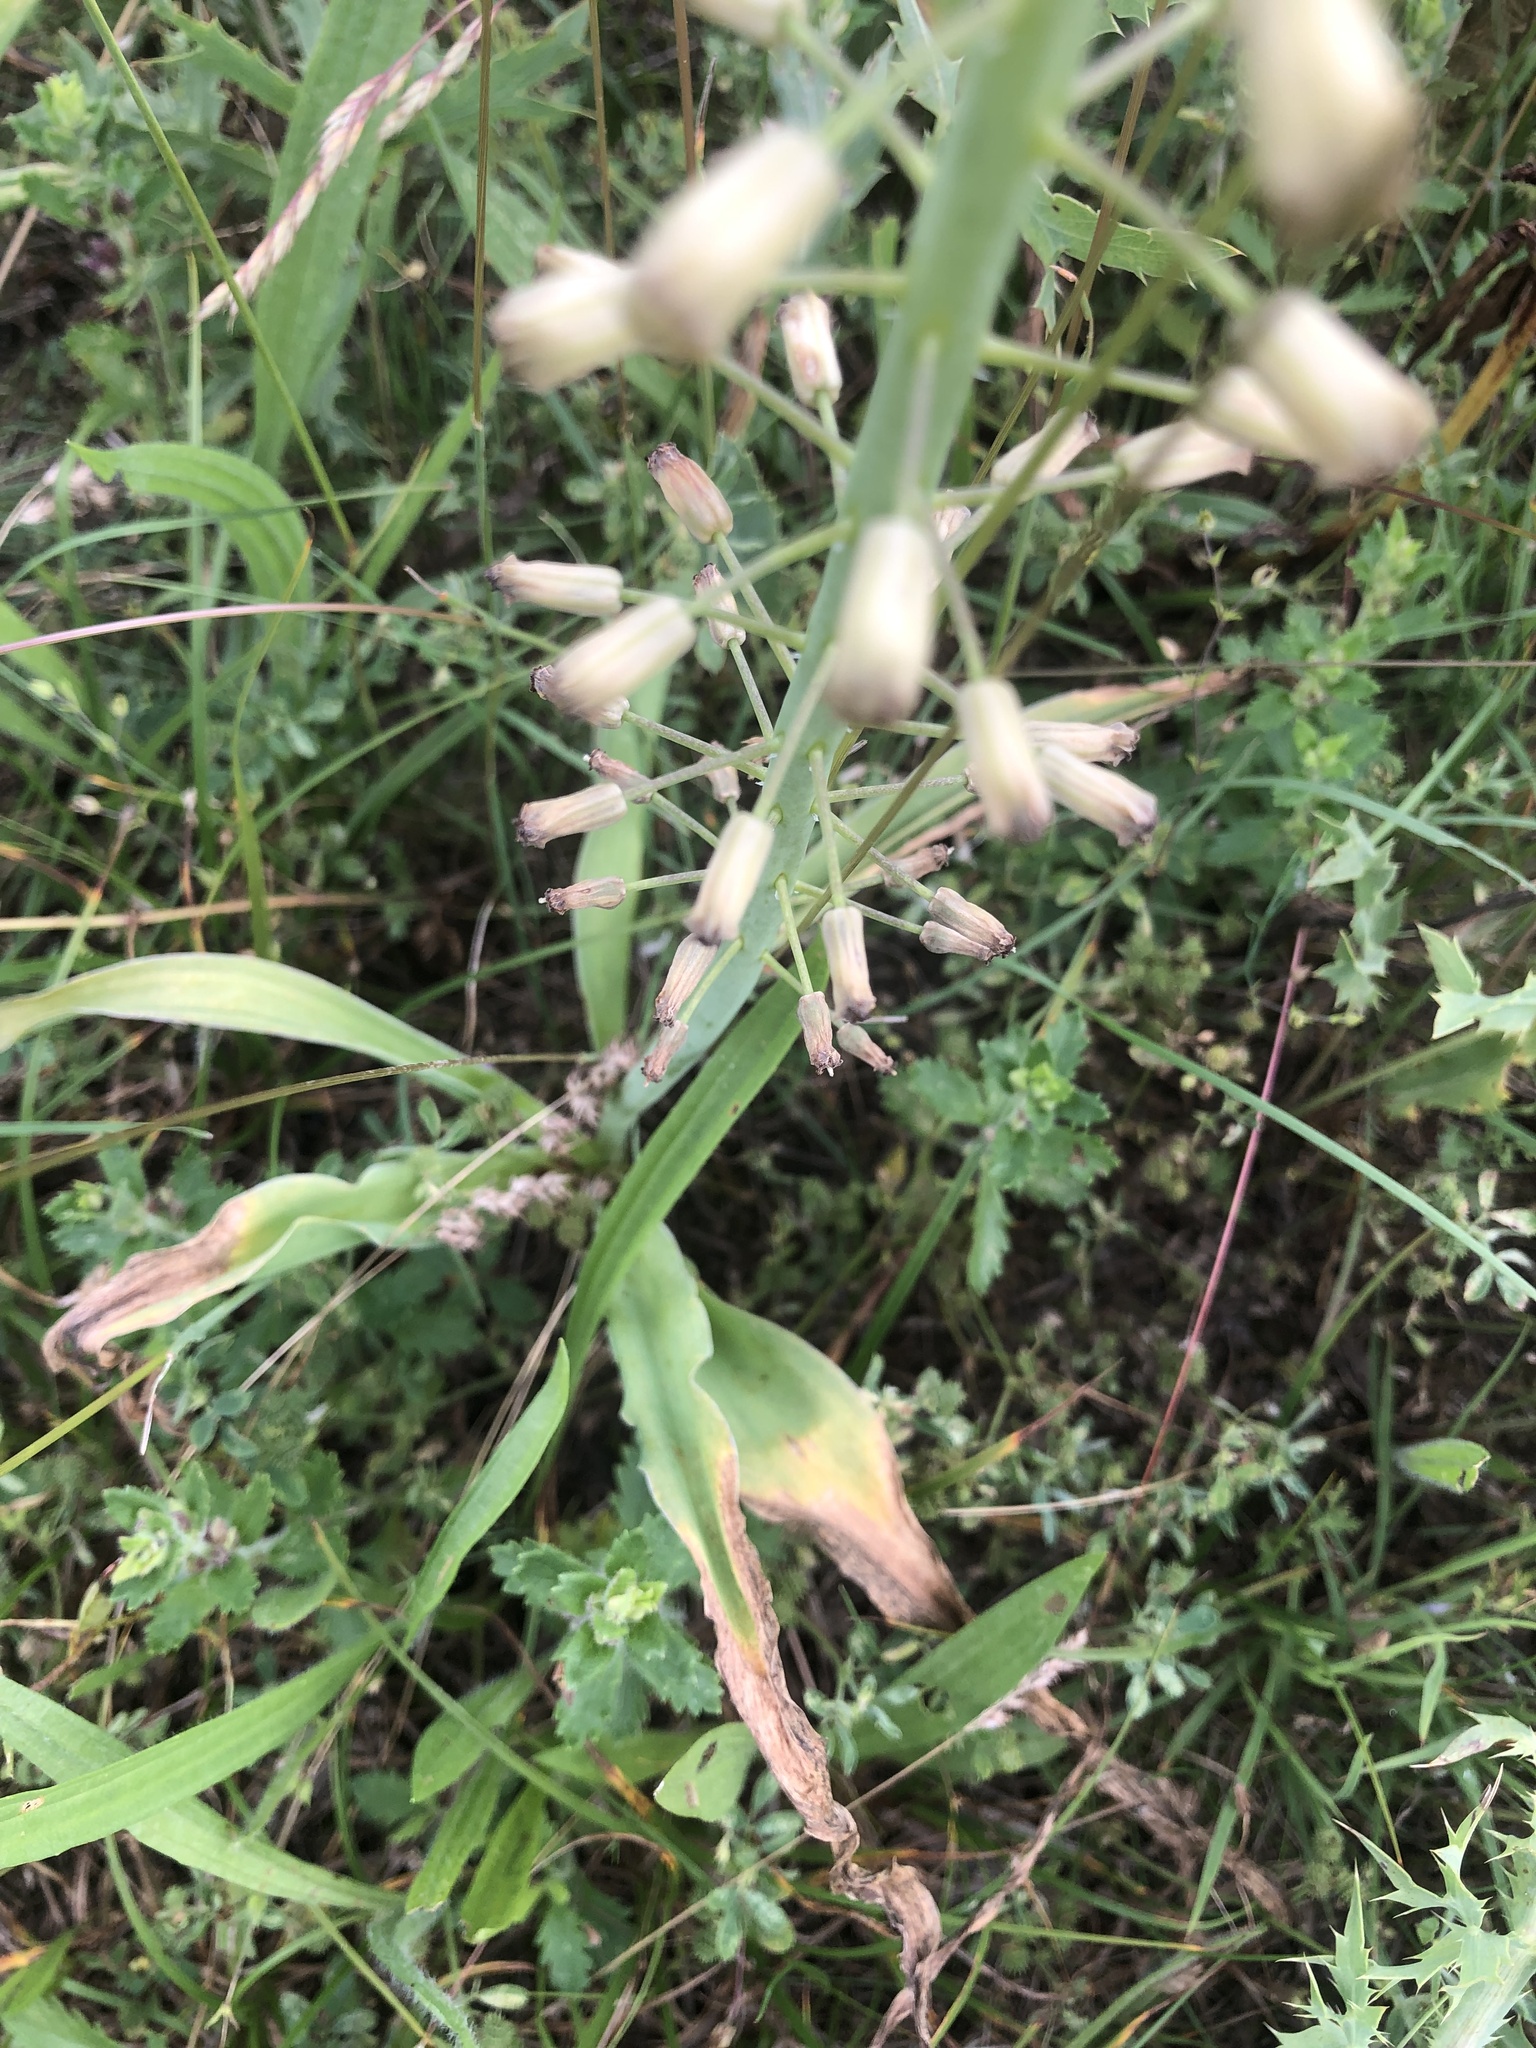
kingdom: Plantae
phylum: Tracheophyta
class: Liliopsida
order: Asparagales
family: Asparagaceae
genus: Muscari
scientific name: Muscari comosum
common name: Tassel hyacinth
